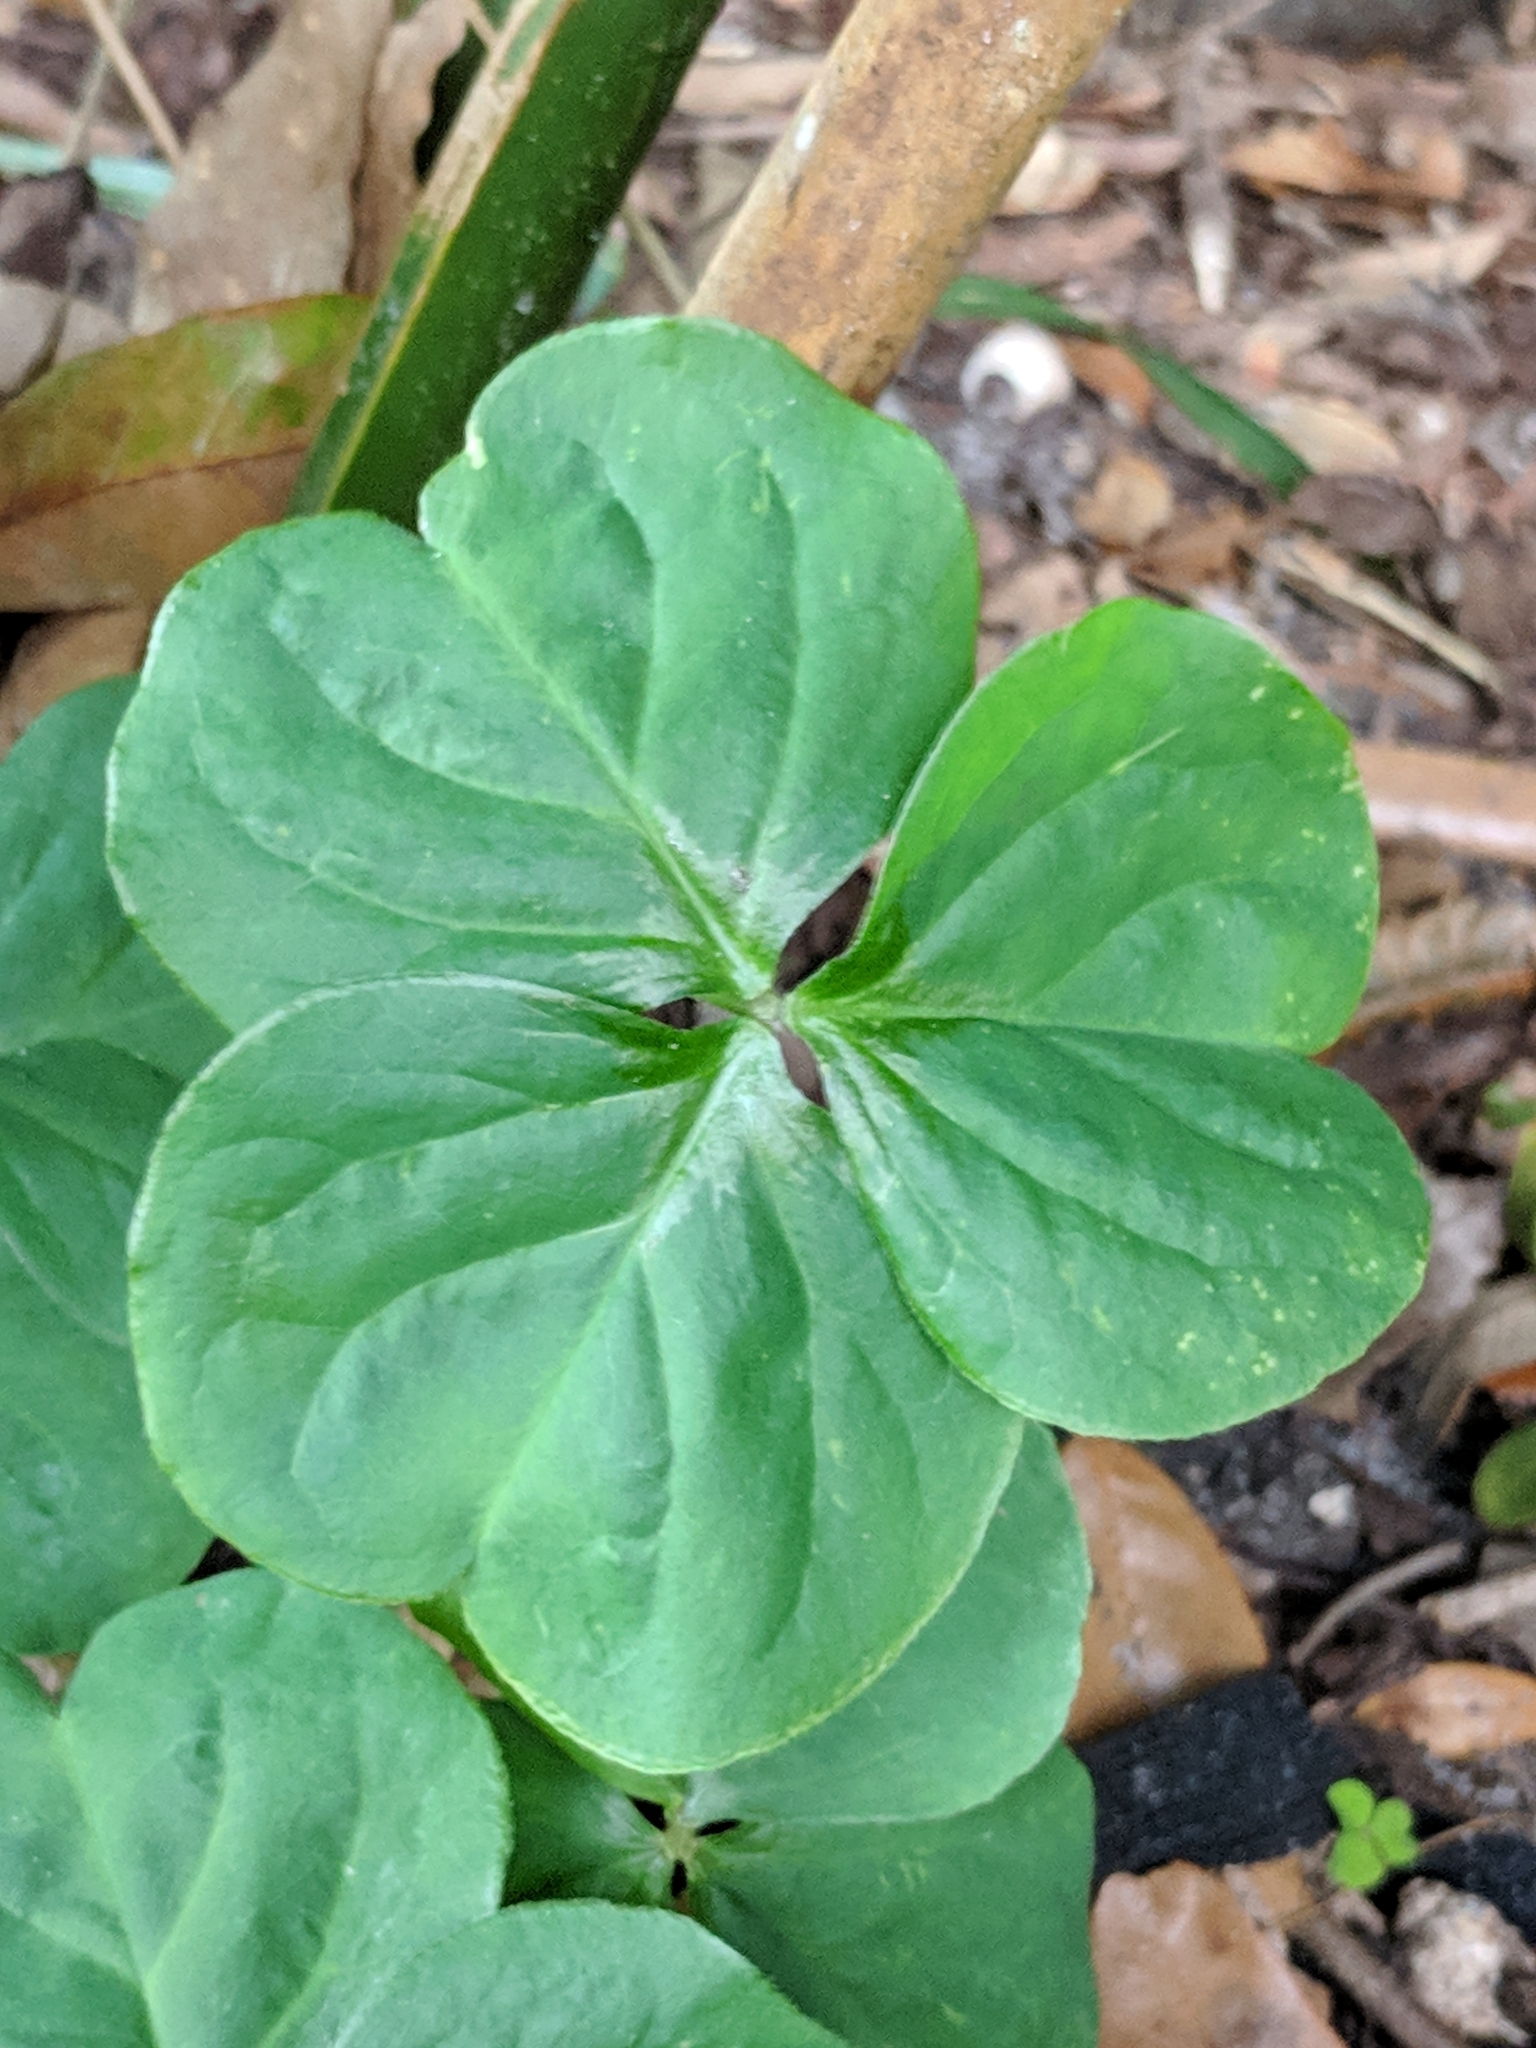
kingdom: Plantae
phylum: Tracheophyta
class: Magnoliopsida
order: Oxalidales
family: Oxalidaceae
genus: Oxalis
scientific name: Oxalis debilis
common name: Large-flowered pink-sorrel
